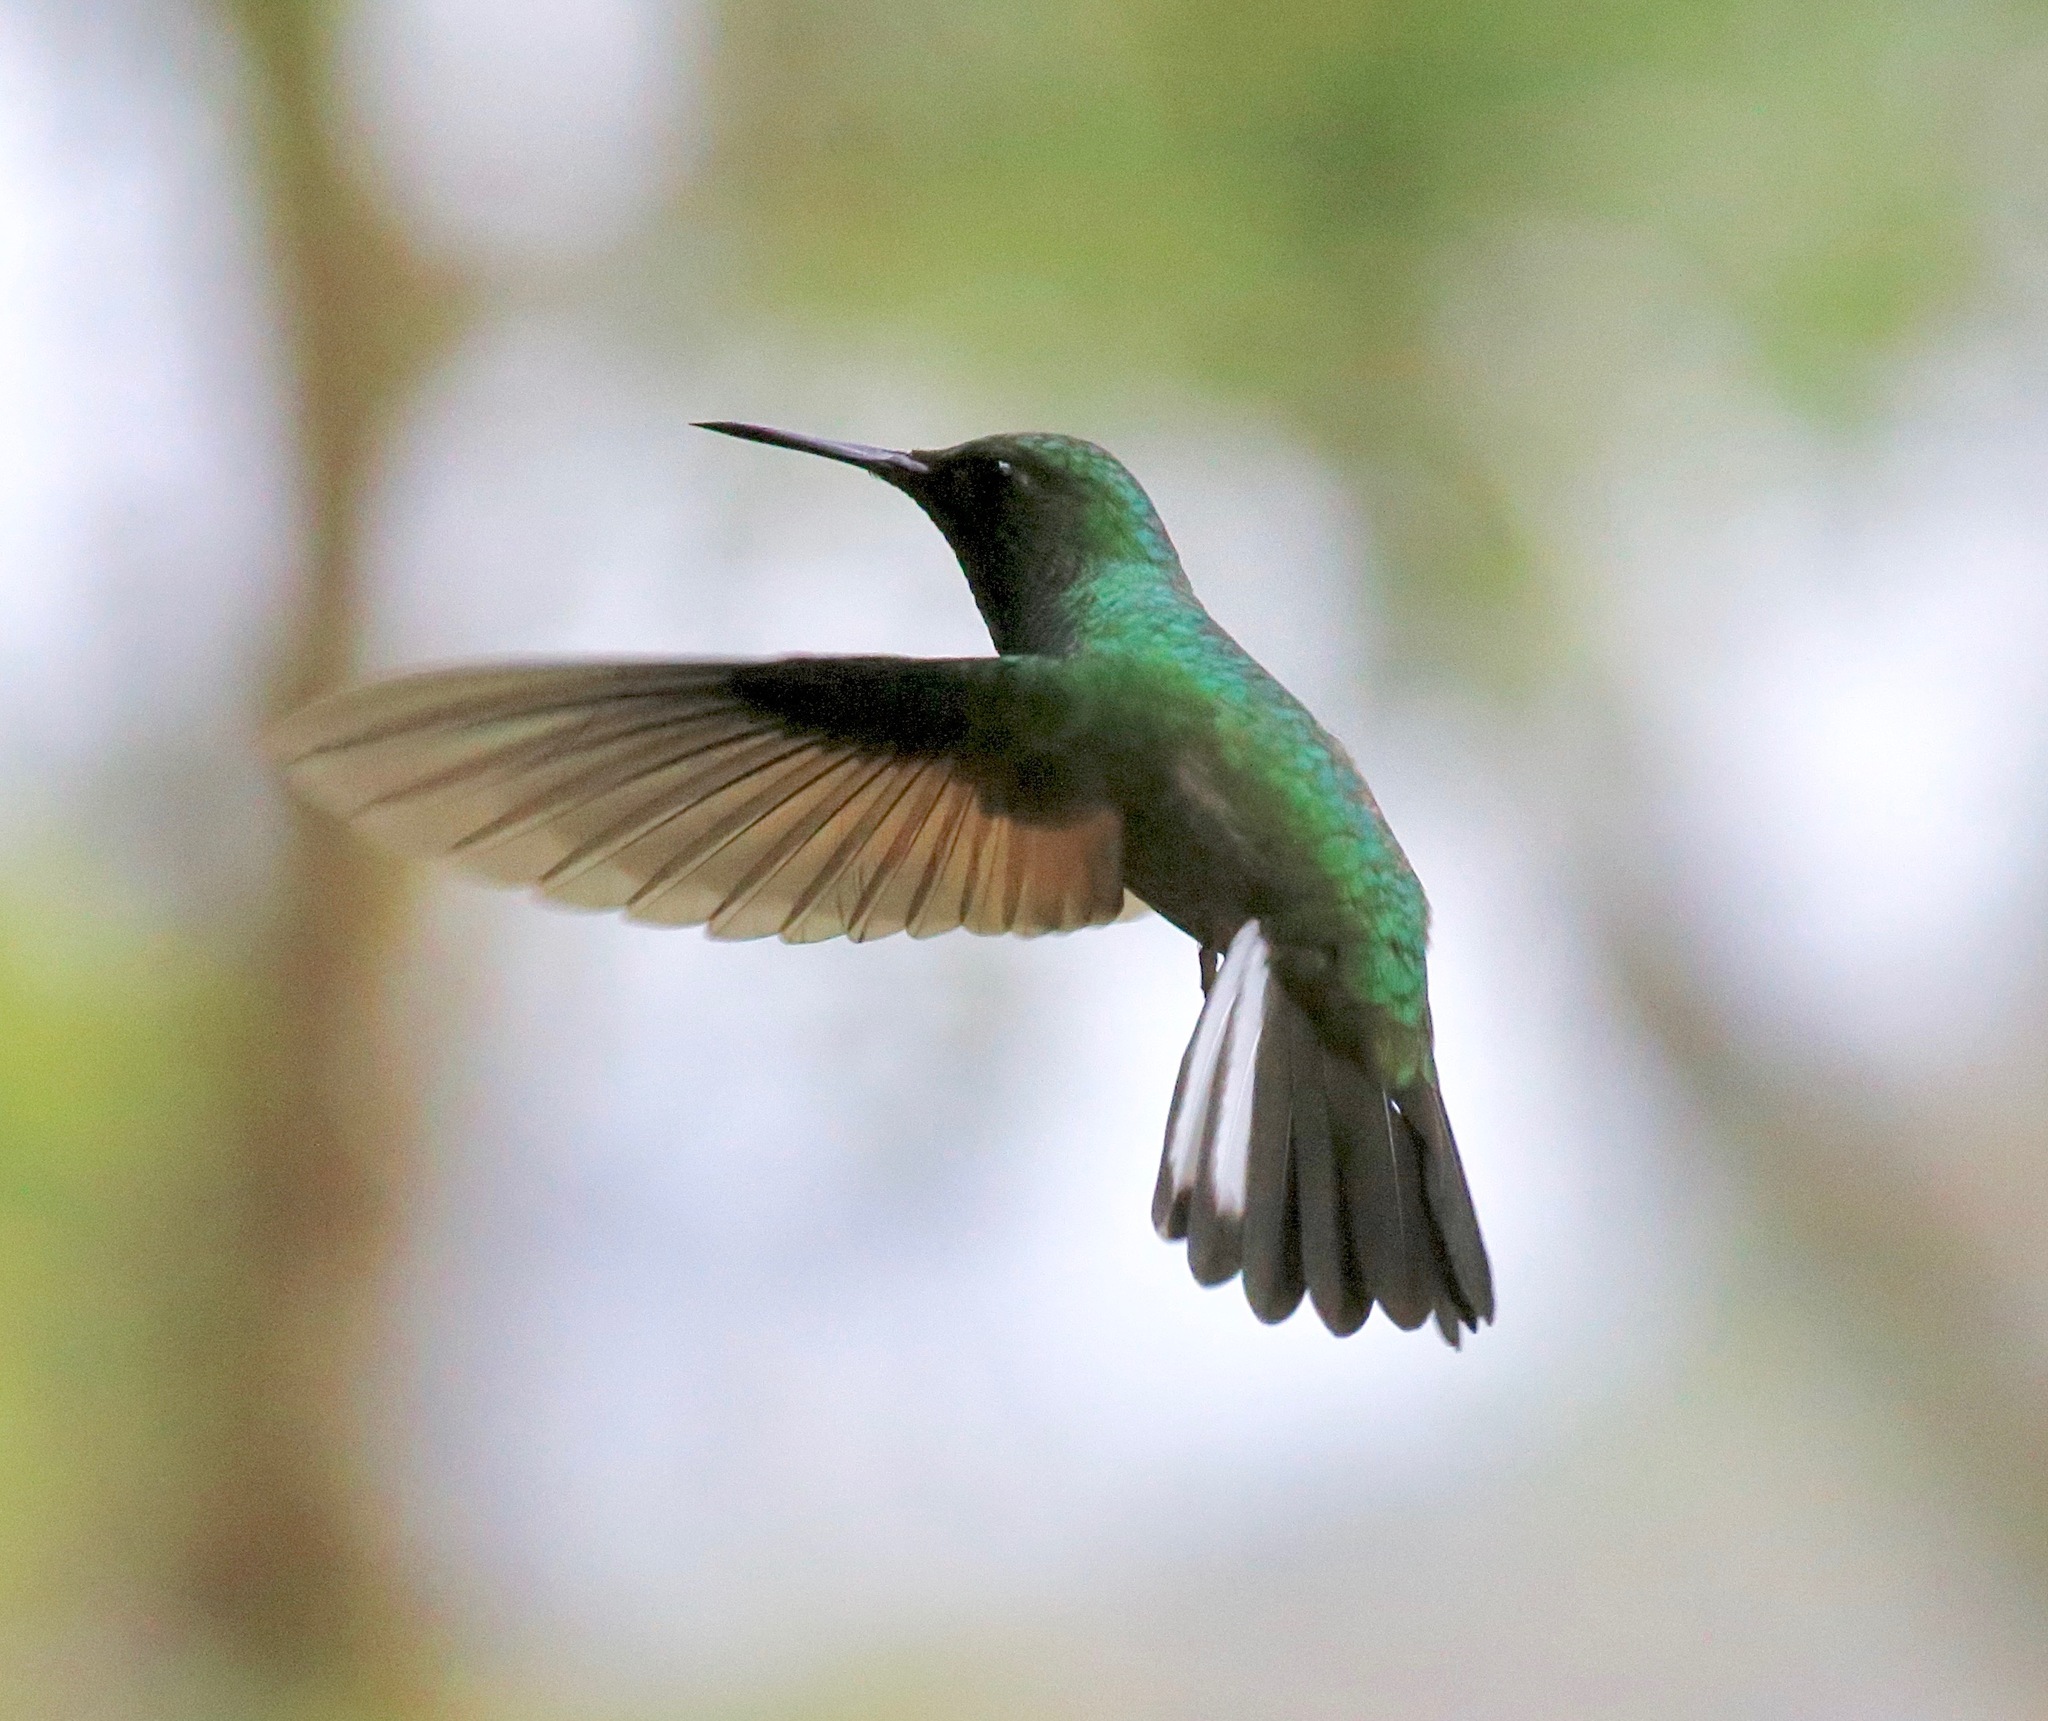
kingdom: Animalia
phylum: Chordata
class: Aves
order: Apodiformes
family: Trochilidae
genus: Eupherusa
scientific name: Eupherusa eximia
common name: Stripe-tailed hummingbird
